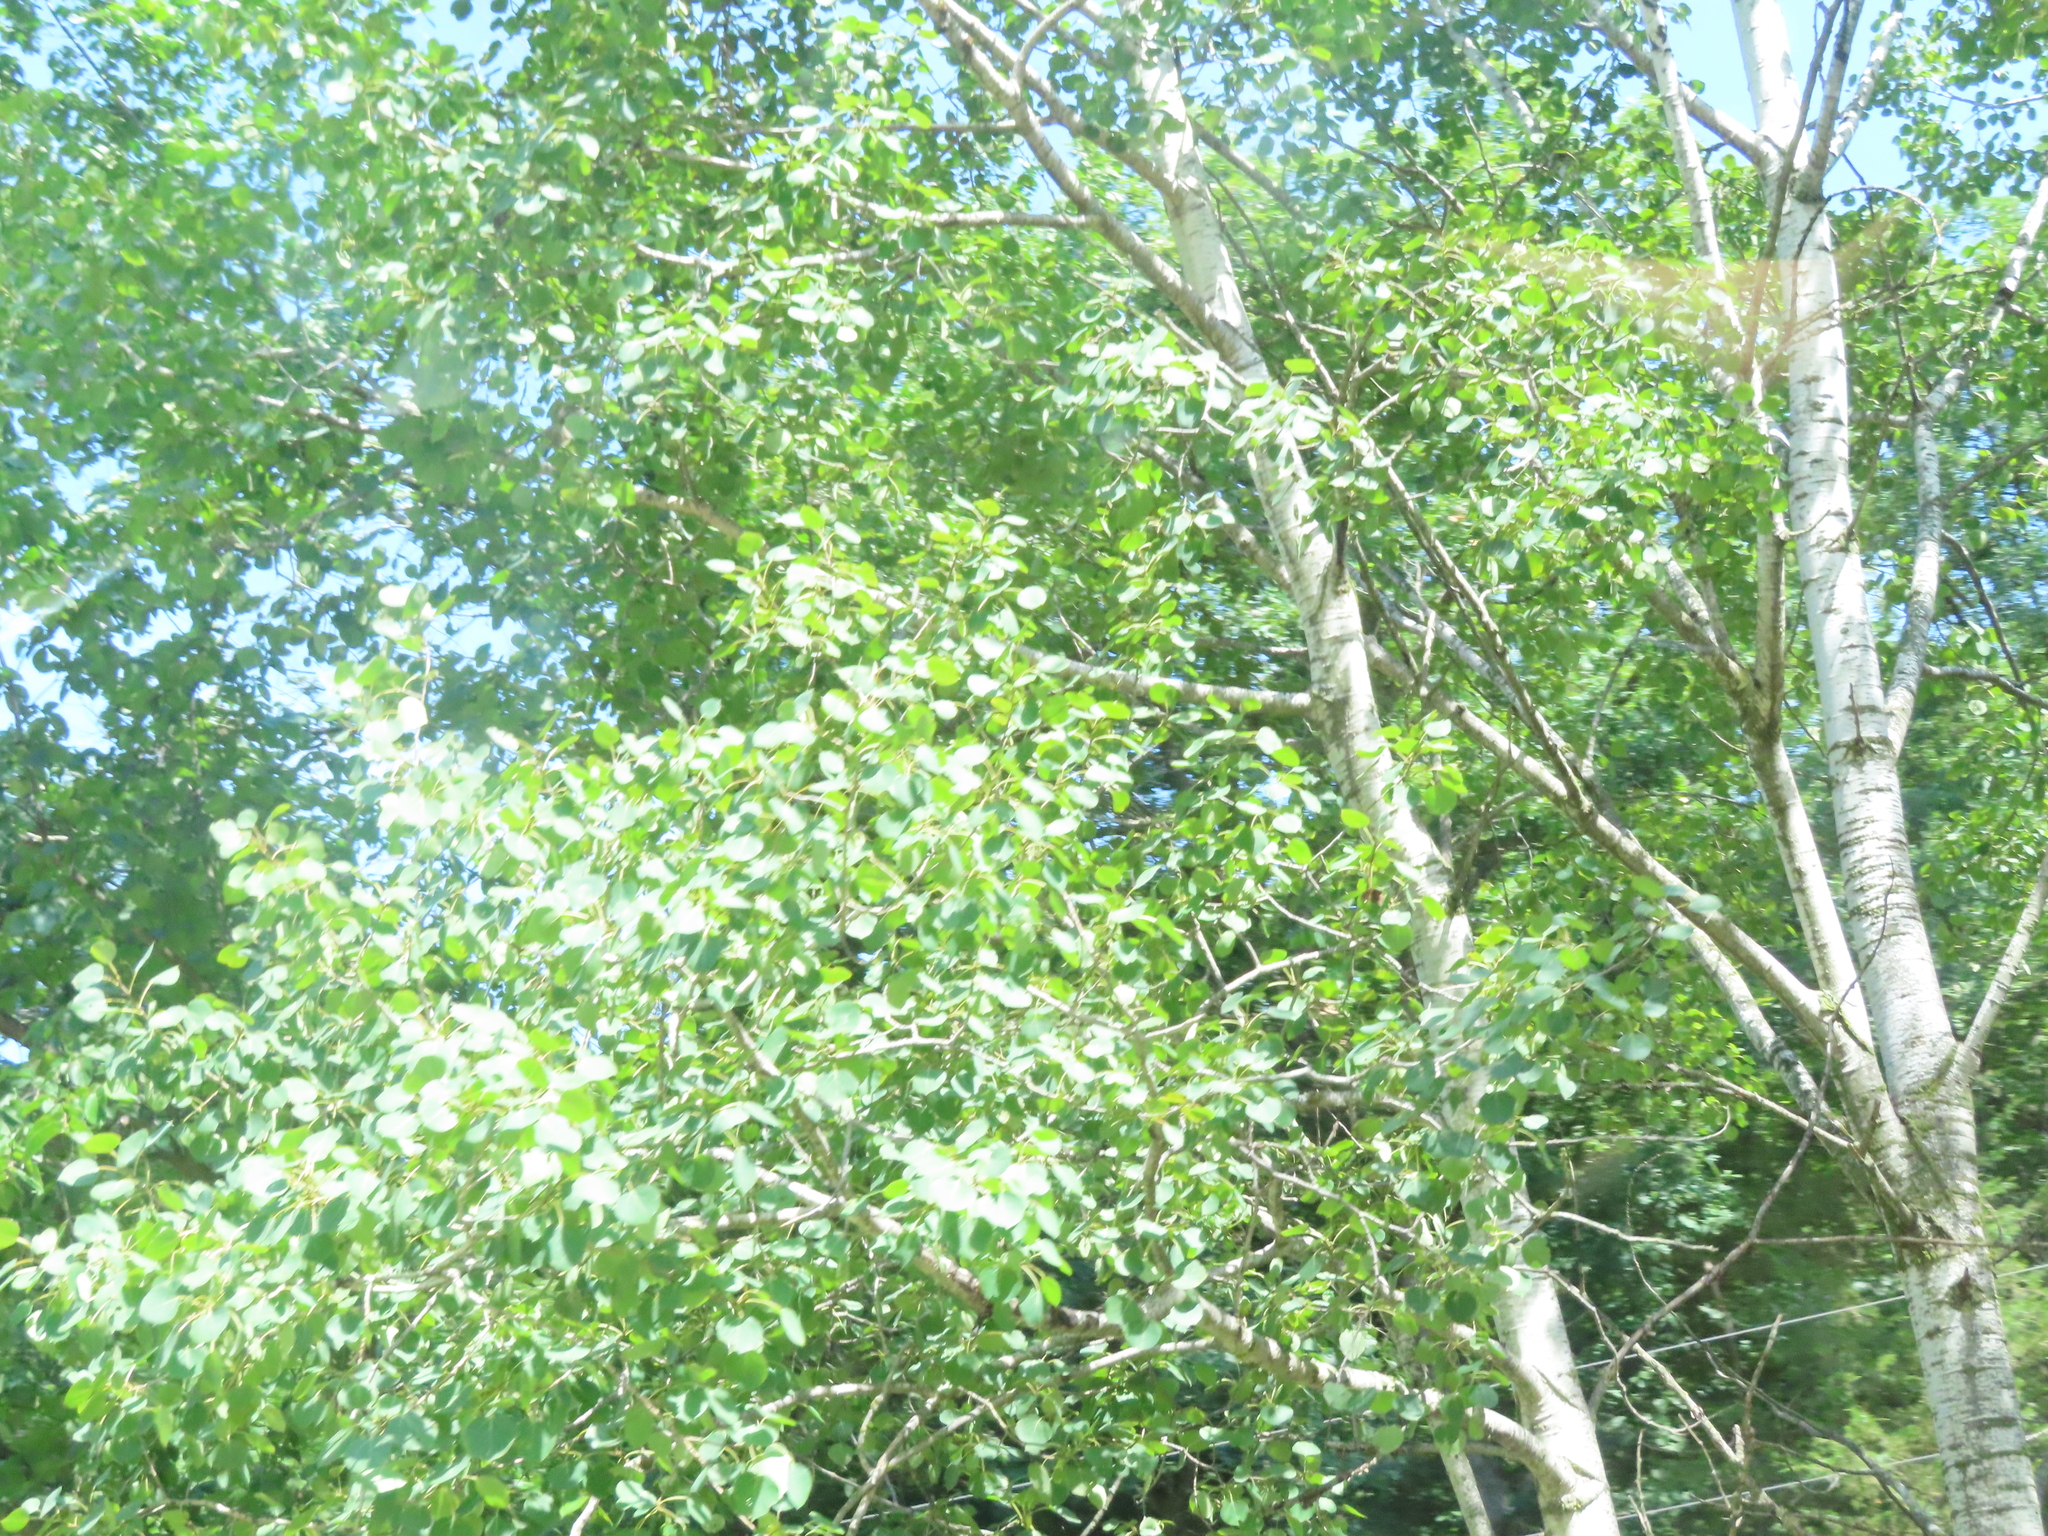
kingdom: Plantae
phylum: Tracheophyta
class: Magnoliopsida
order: Malpighiales
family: Salicaceae
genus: Populus
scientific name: Populus tremuloides
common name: Quaking aspen
